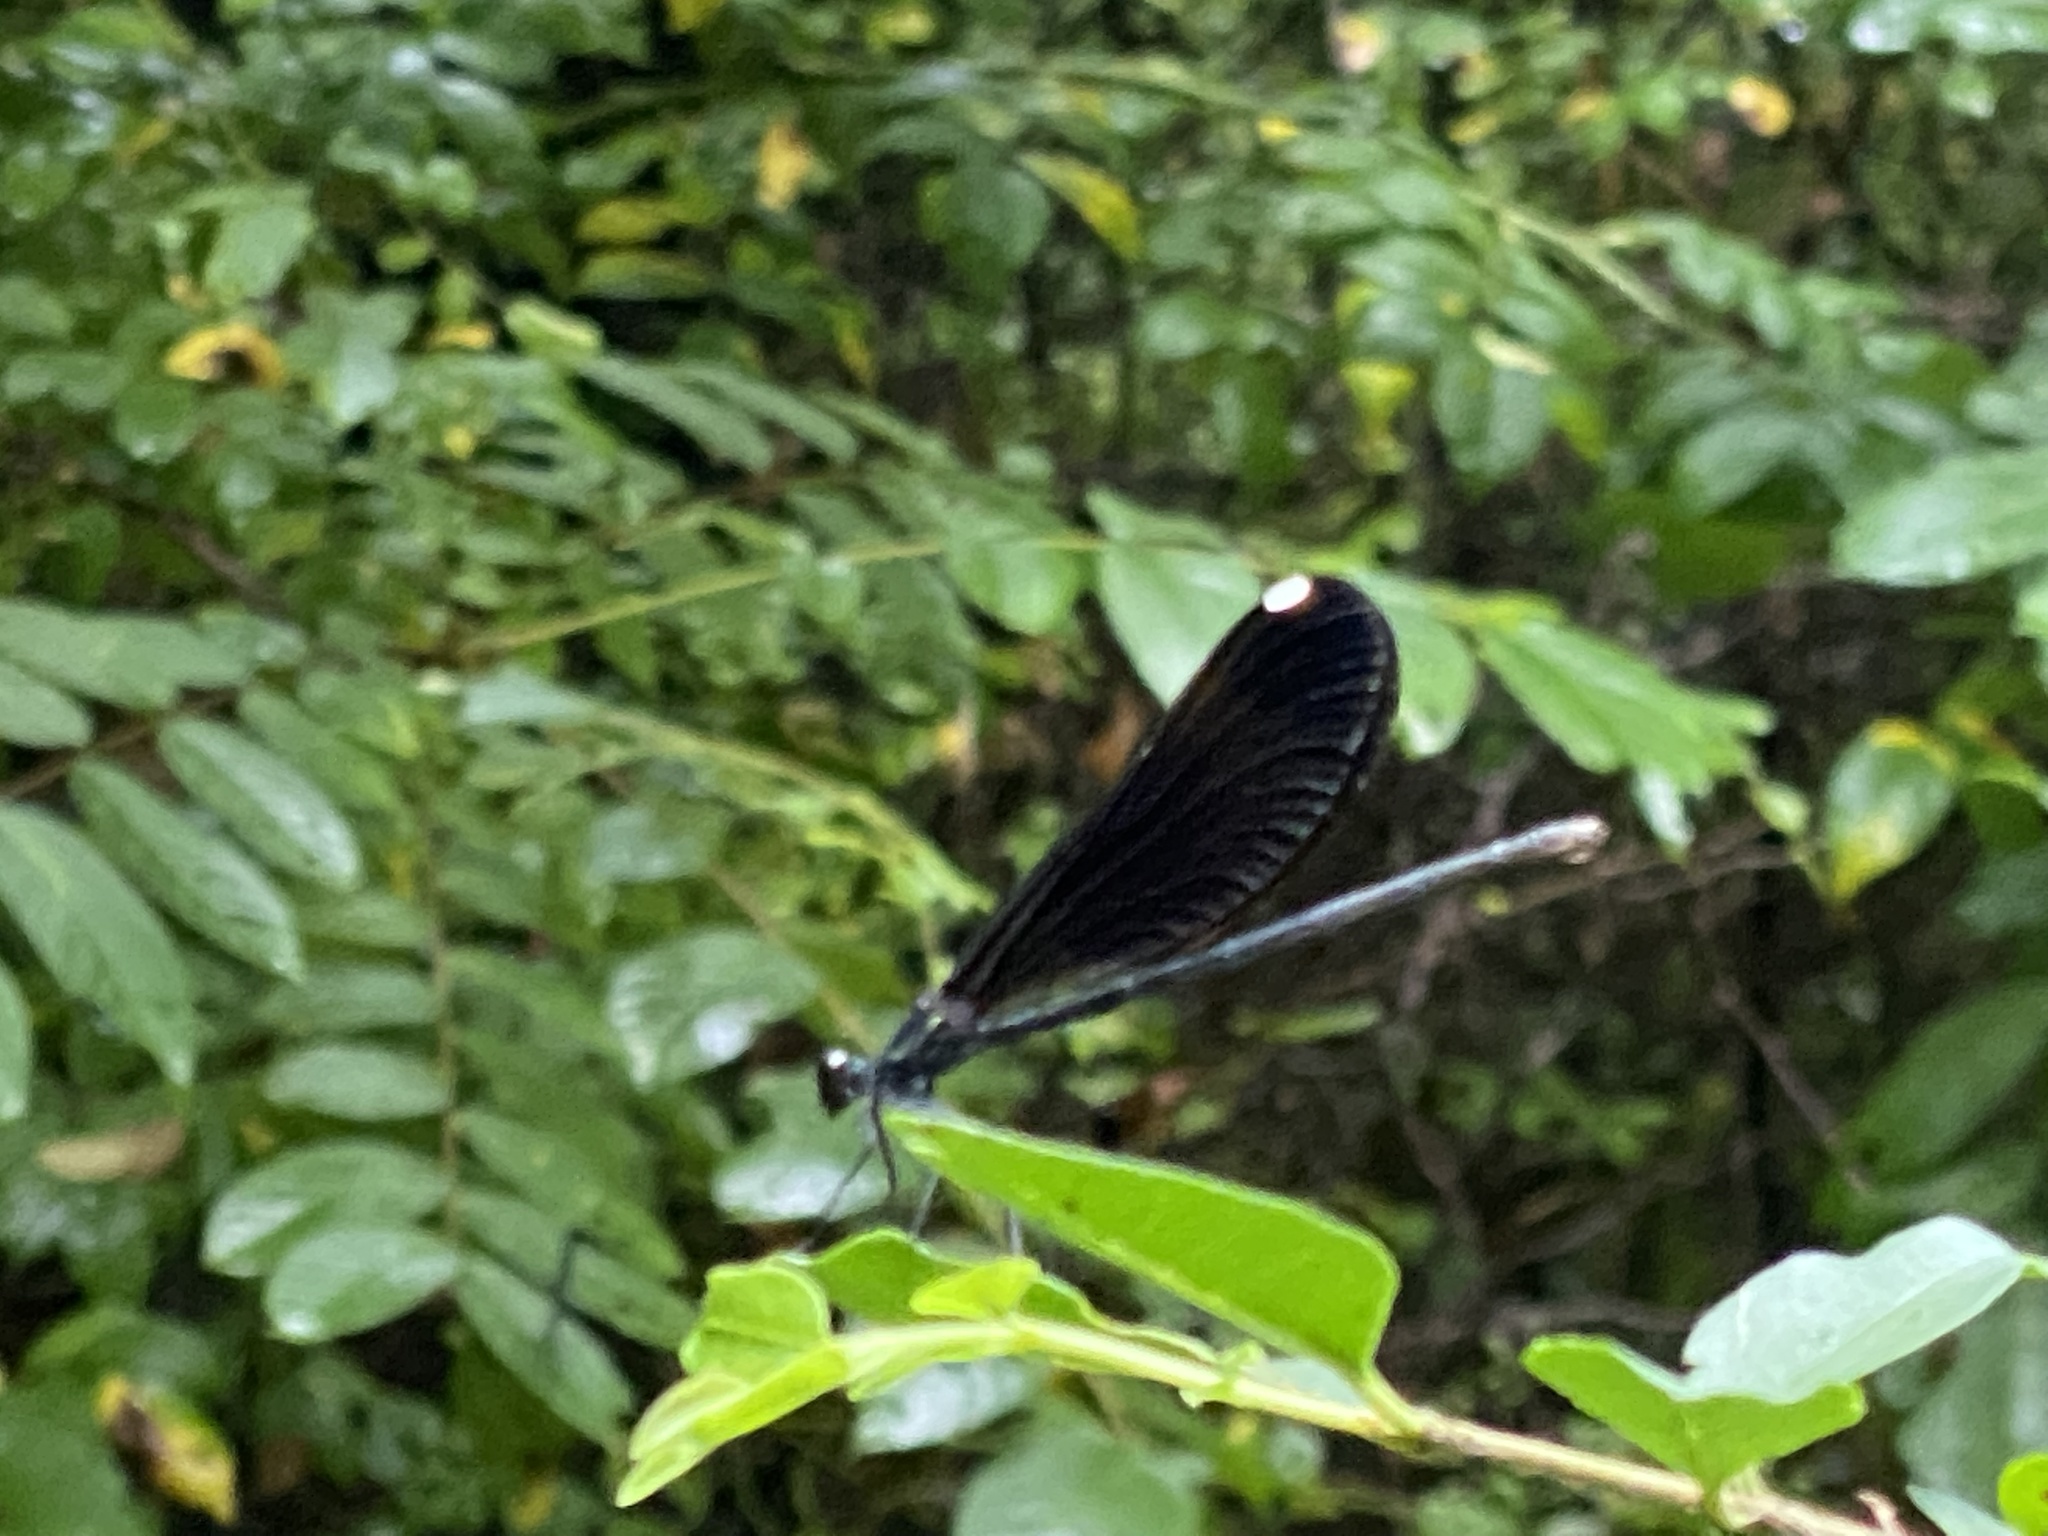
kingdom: Animalia
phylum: Arthropoda
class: Insecta
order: Odonata
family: Calopterygidae
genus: Calopteryx
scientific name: Calopteryx maculata
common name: Ebony jewelwing
